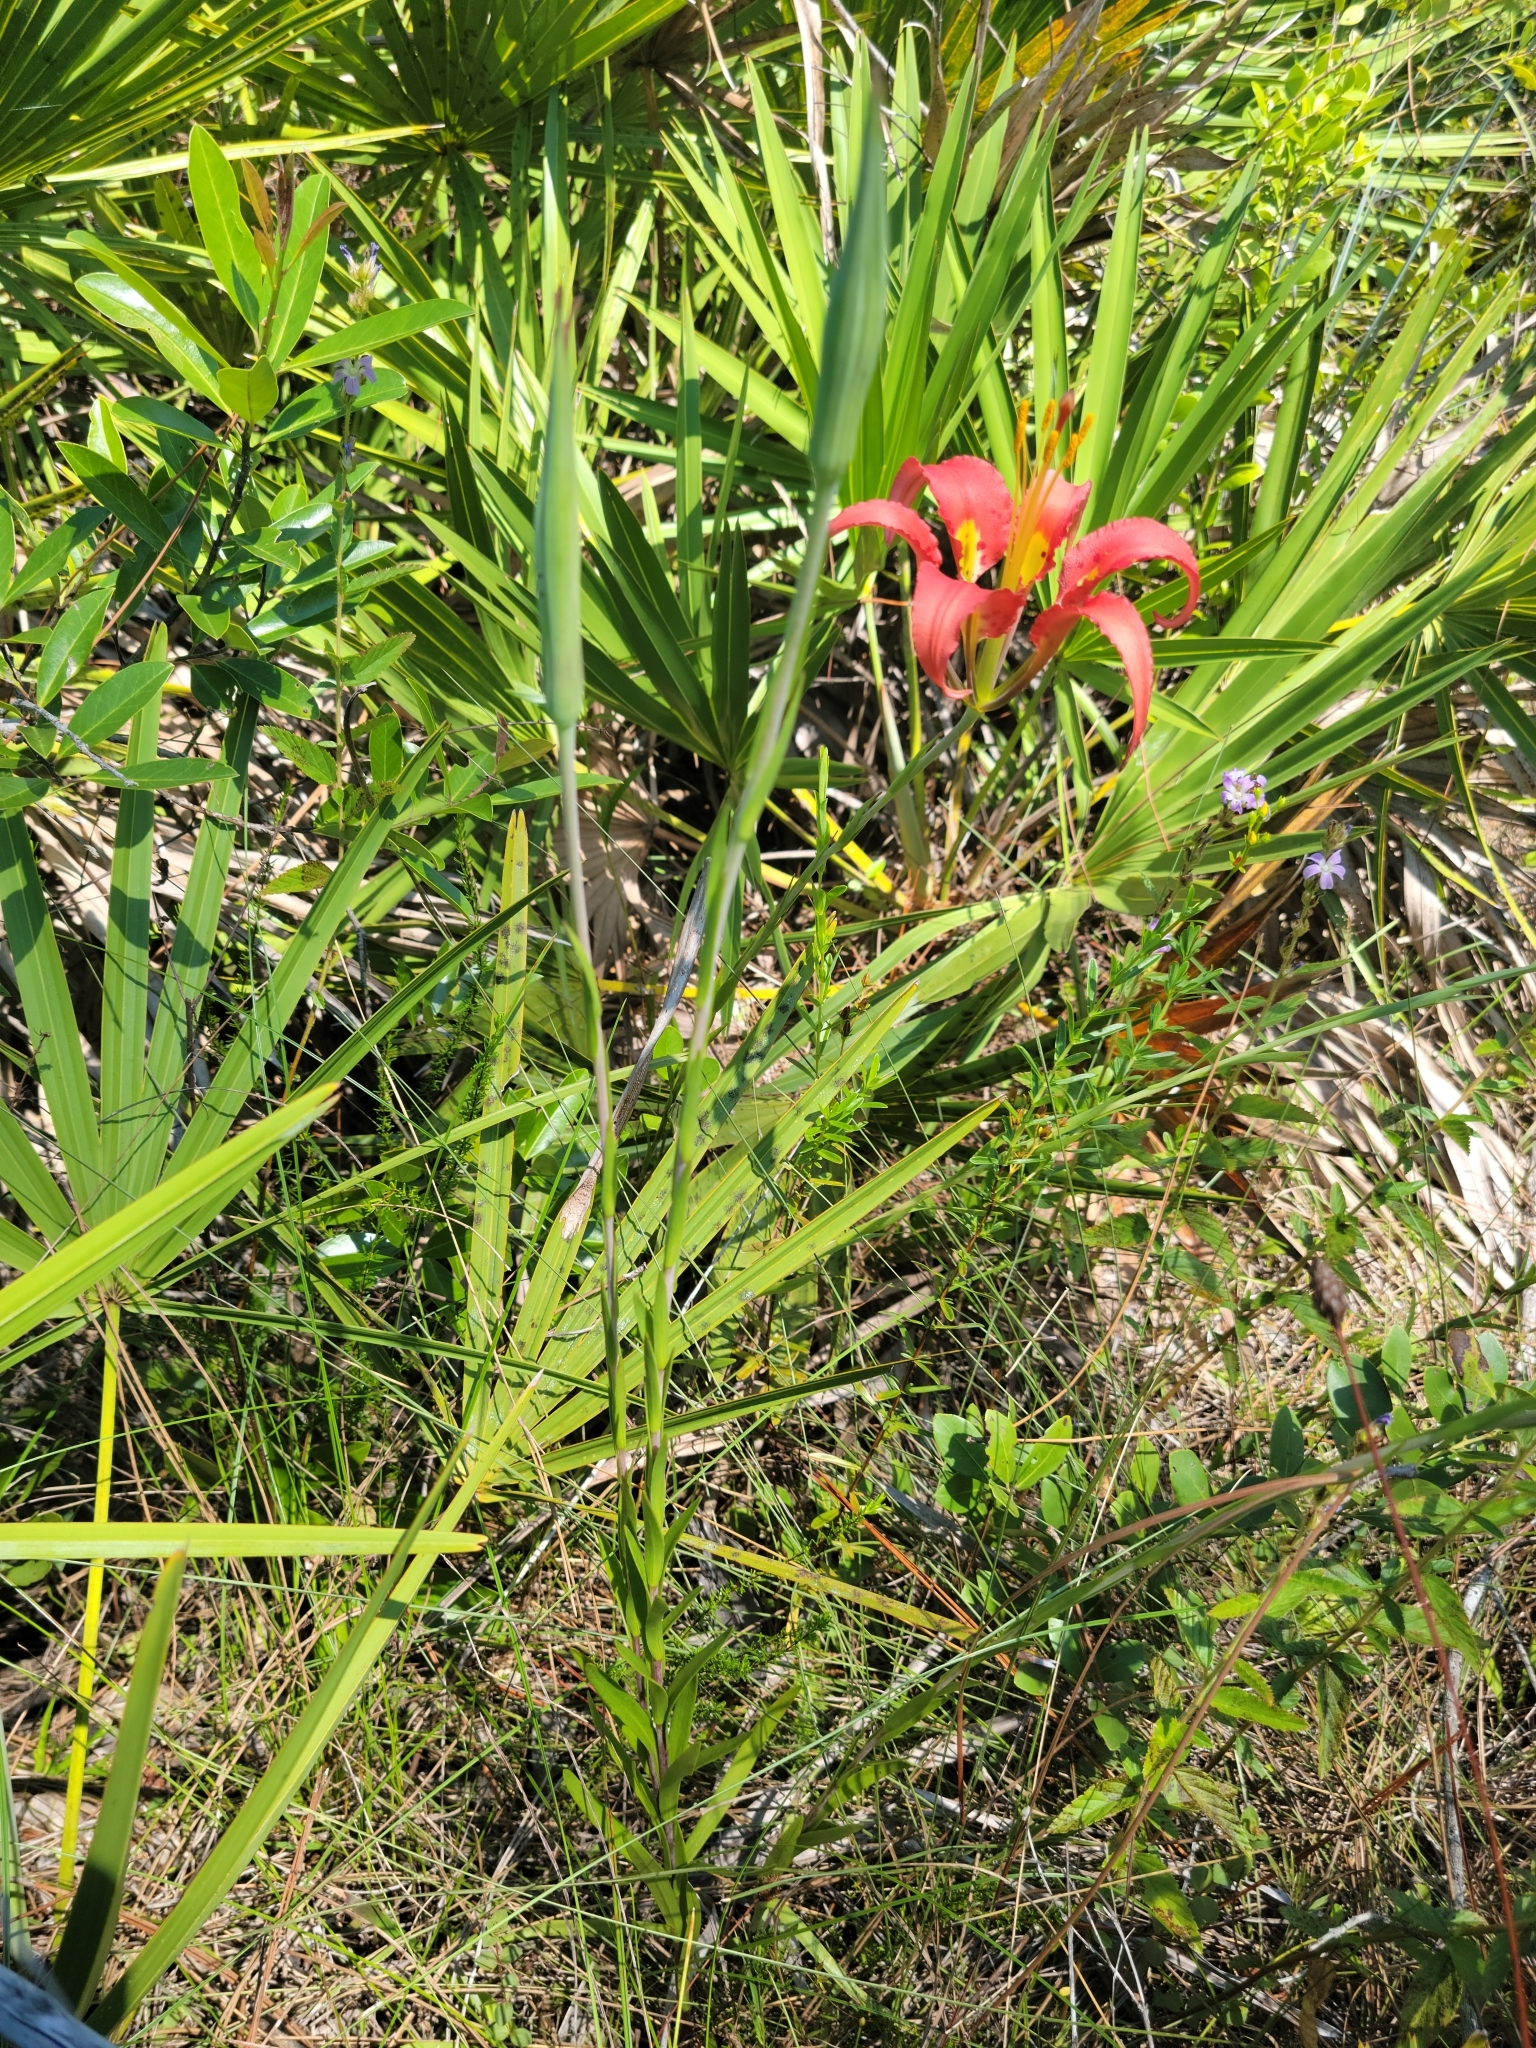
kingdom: Plantae
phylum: Tracheophyta
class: Liliopsida
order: Liliales
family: Liliaceae
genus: Lilium
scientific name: Lilium catesbaei
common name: Catesby's lily
